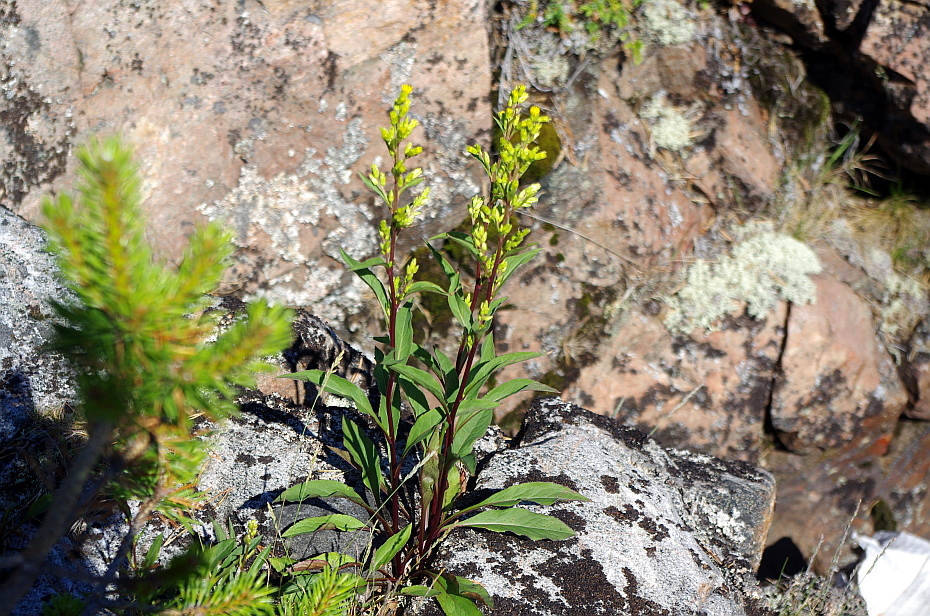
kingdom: Plantae
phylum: Tracheophyta
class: Magnoliopsida
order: Asterales
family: Asteraceae
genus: Solidago
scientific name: Solidago virgaurea
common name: Goldenrod
